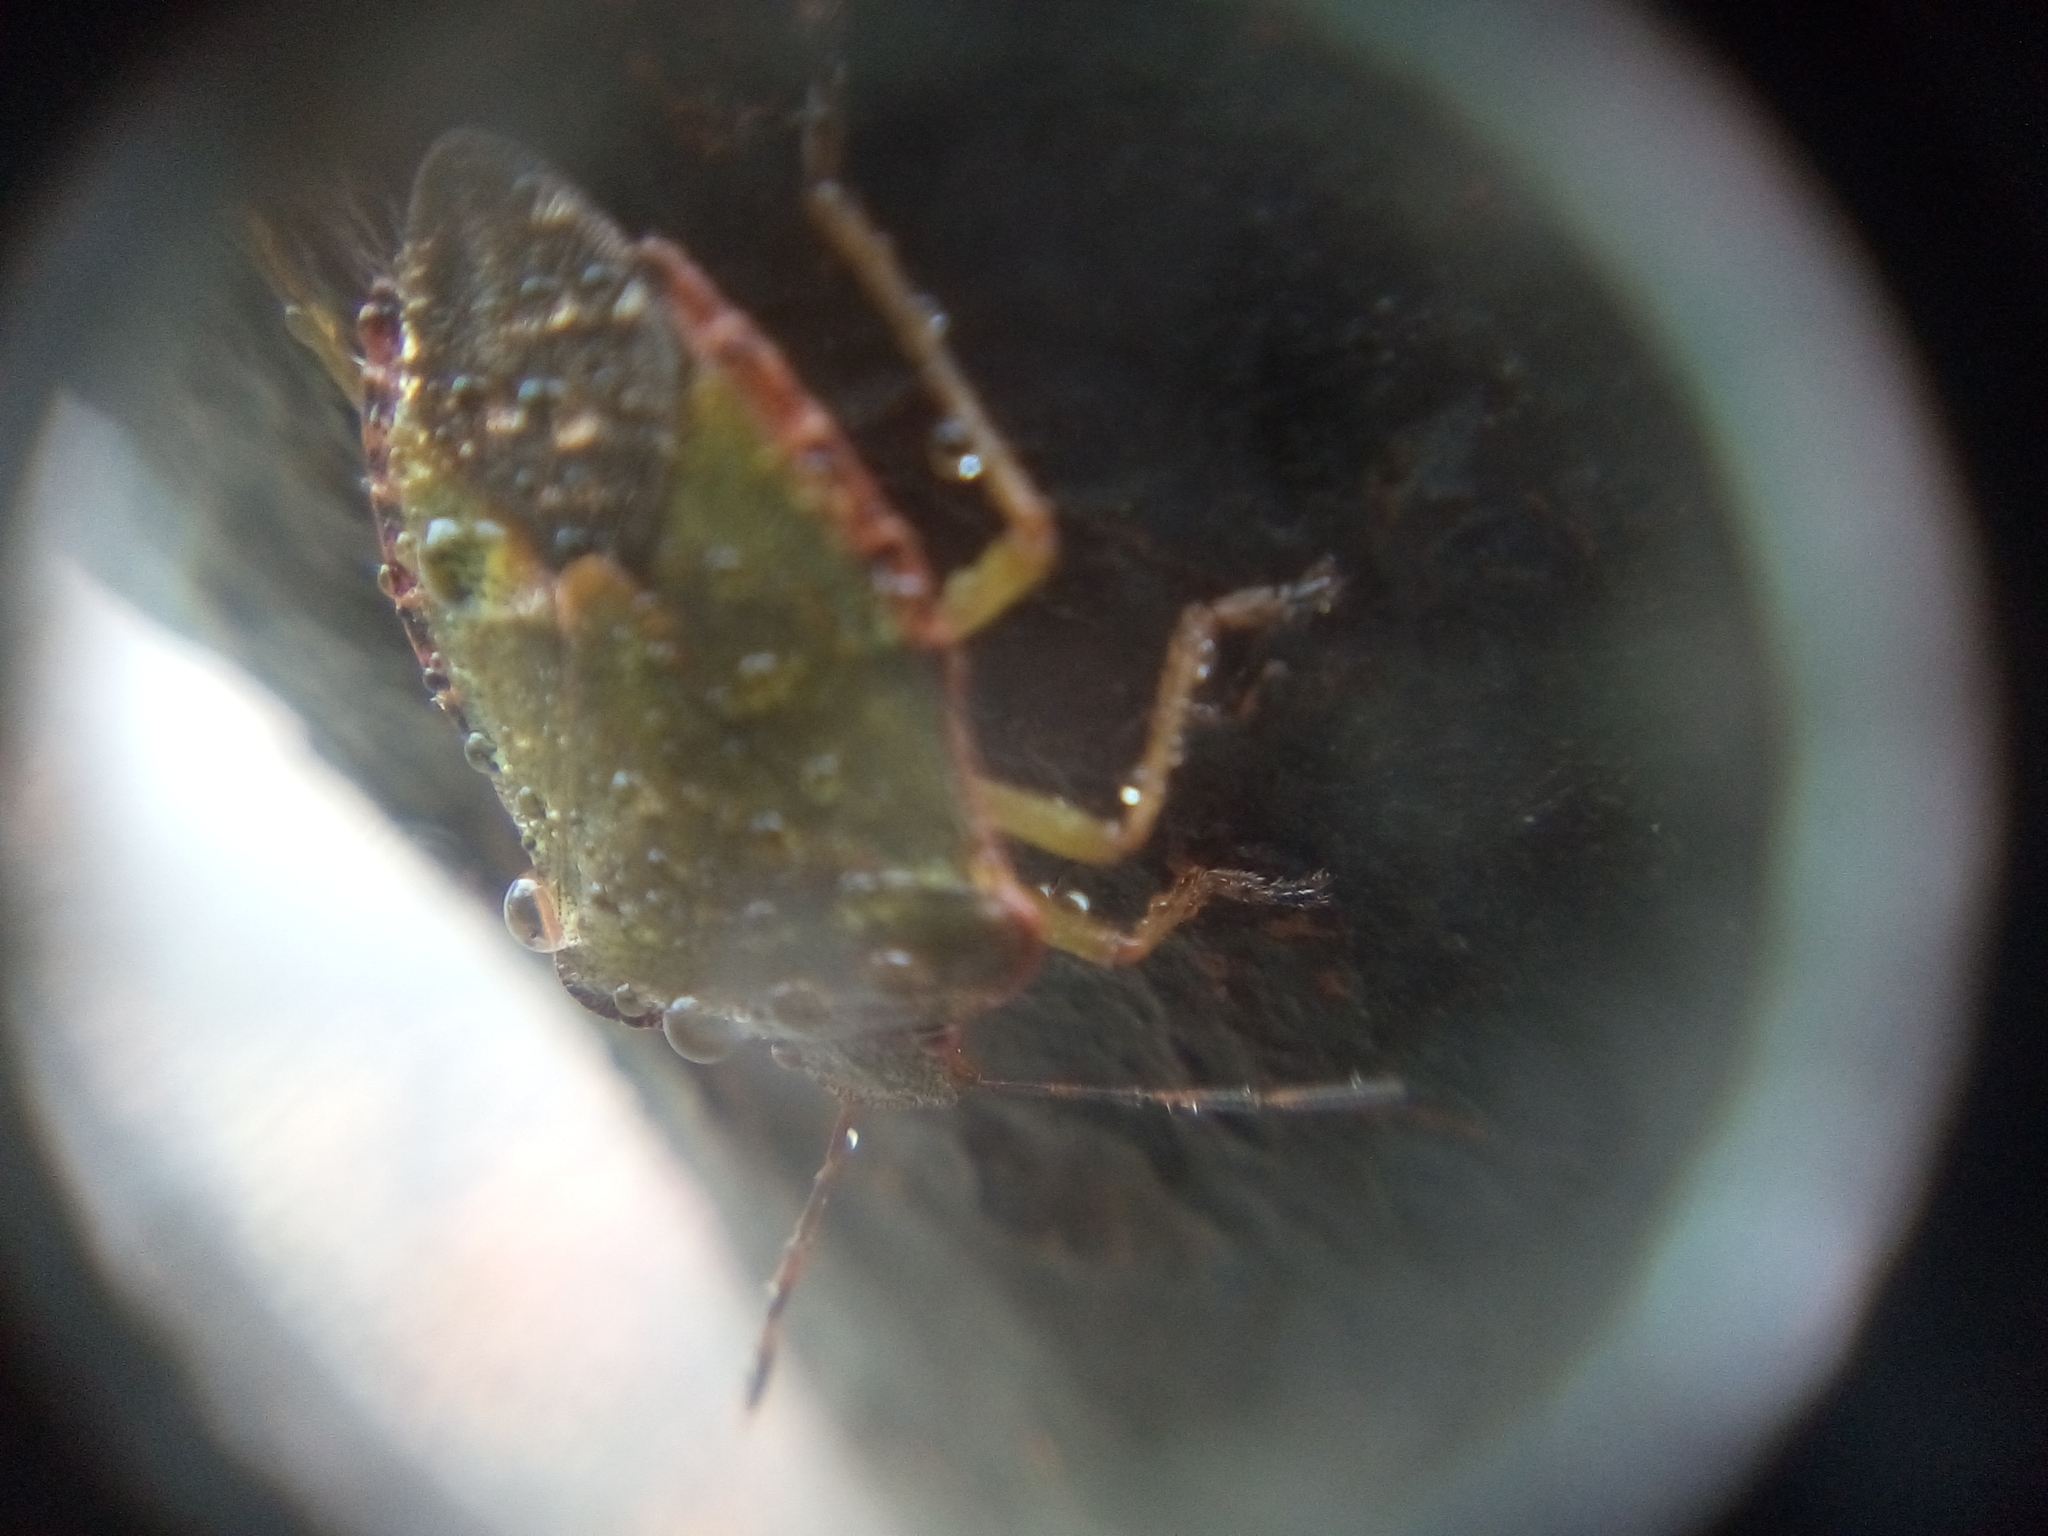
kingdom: Animalia
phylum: Arthropoda
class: Insecta
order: Hemiptera
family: Pentatomidae
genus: Palomena
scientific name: Palomena prasina
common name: Green shieldbug
